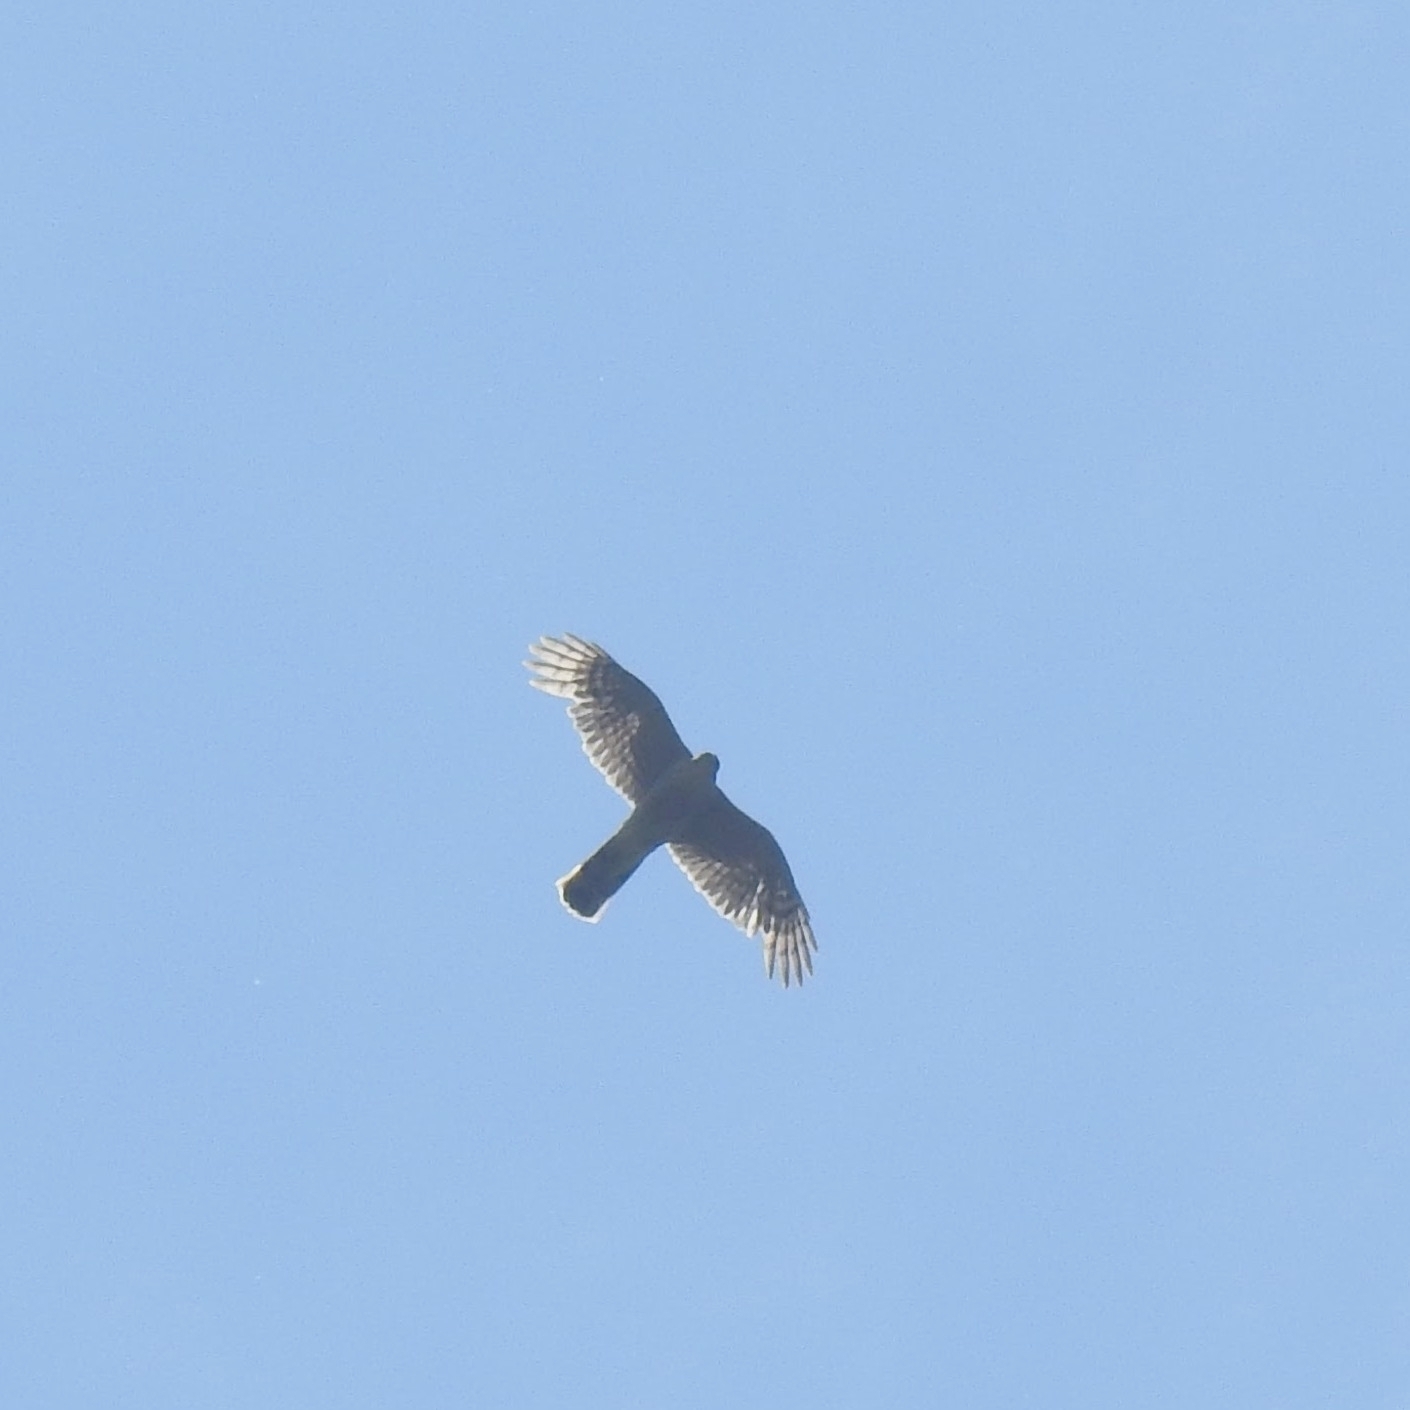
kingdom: Animalia
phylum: Chordata
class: Aves
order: Accipitriformes
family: Accipitridae
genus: Accipiter
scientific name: Accipiter nisus
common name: Eurasian sparrowhawk
